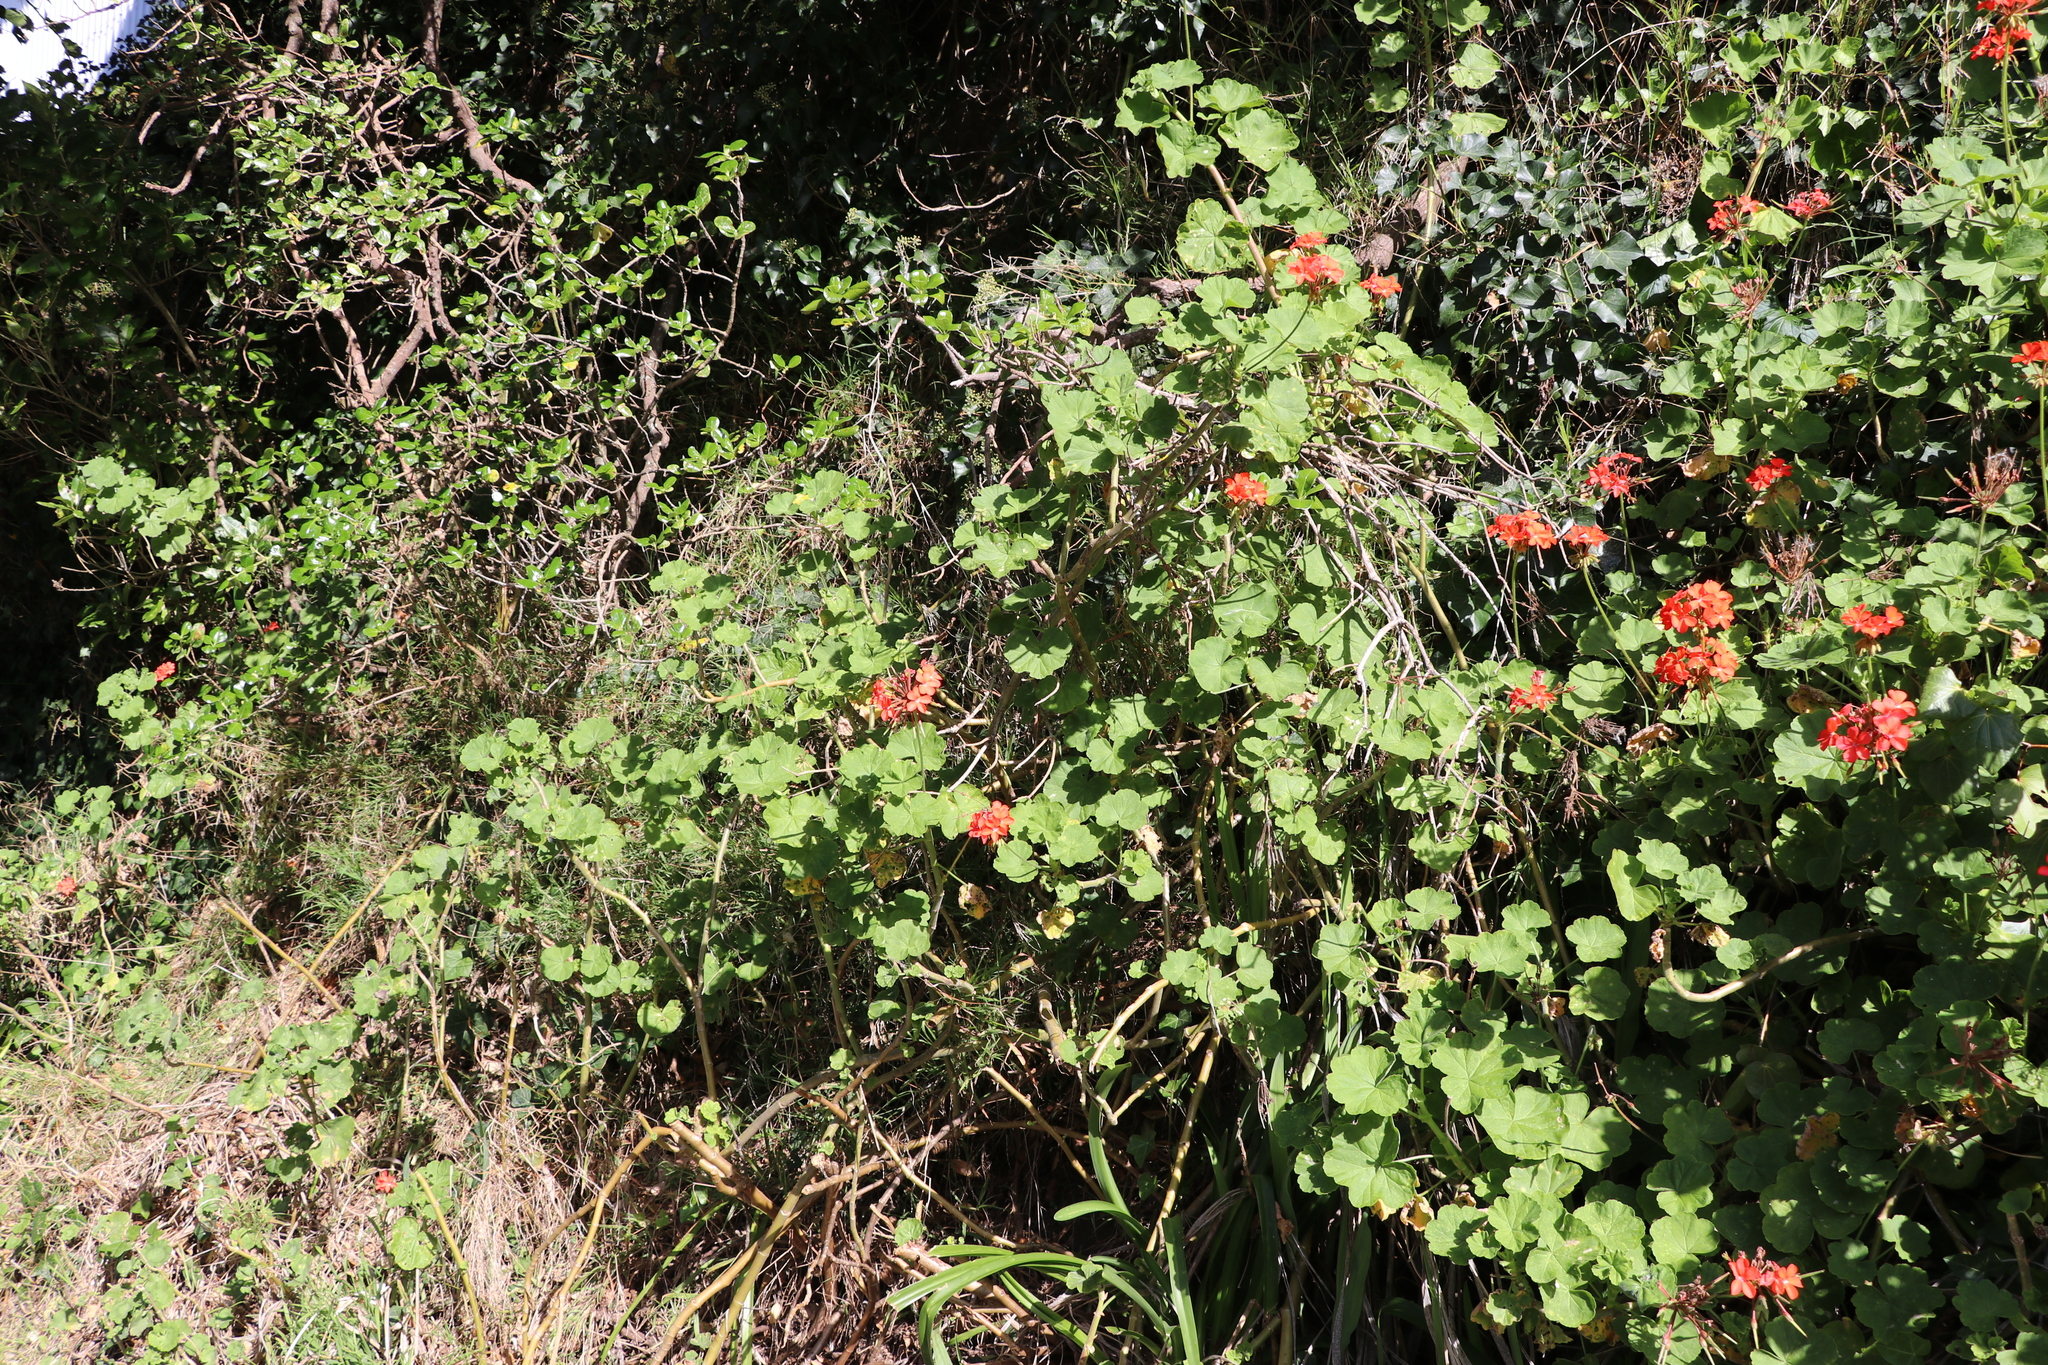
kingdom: Plantae
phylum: Tracheophyta
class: Magnoliopsida
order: Geraniales
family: Geraniaceae
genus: Pelargonium
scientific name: Pelargonium hybridum
